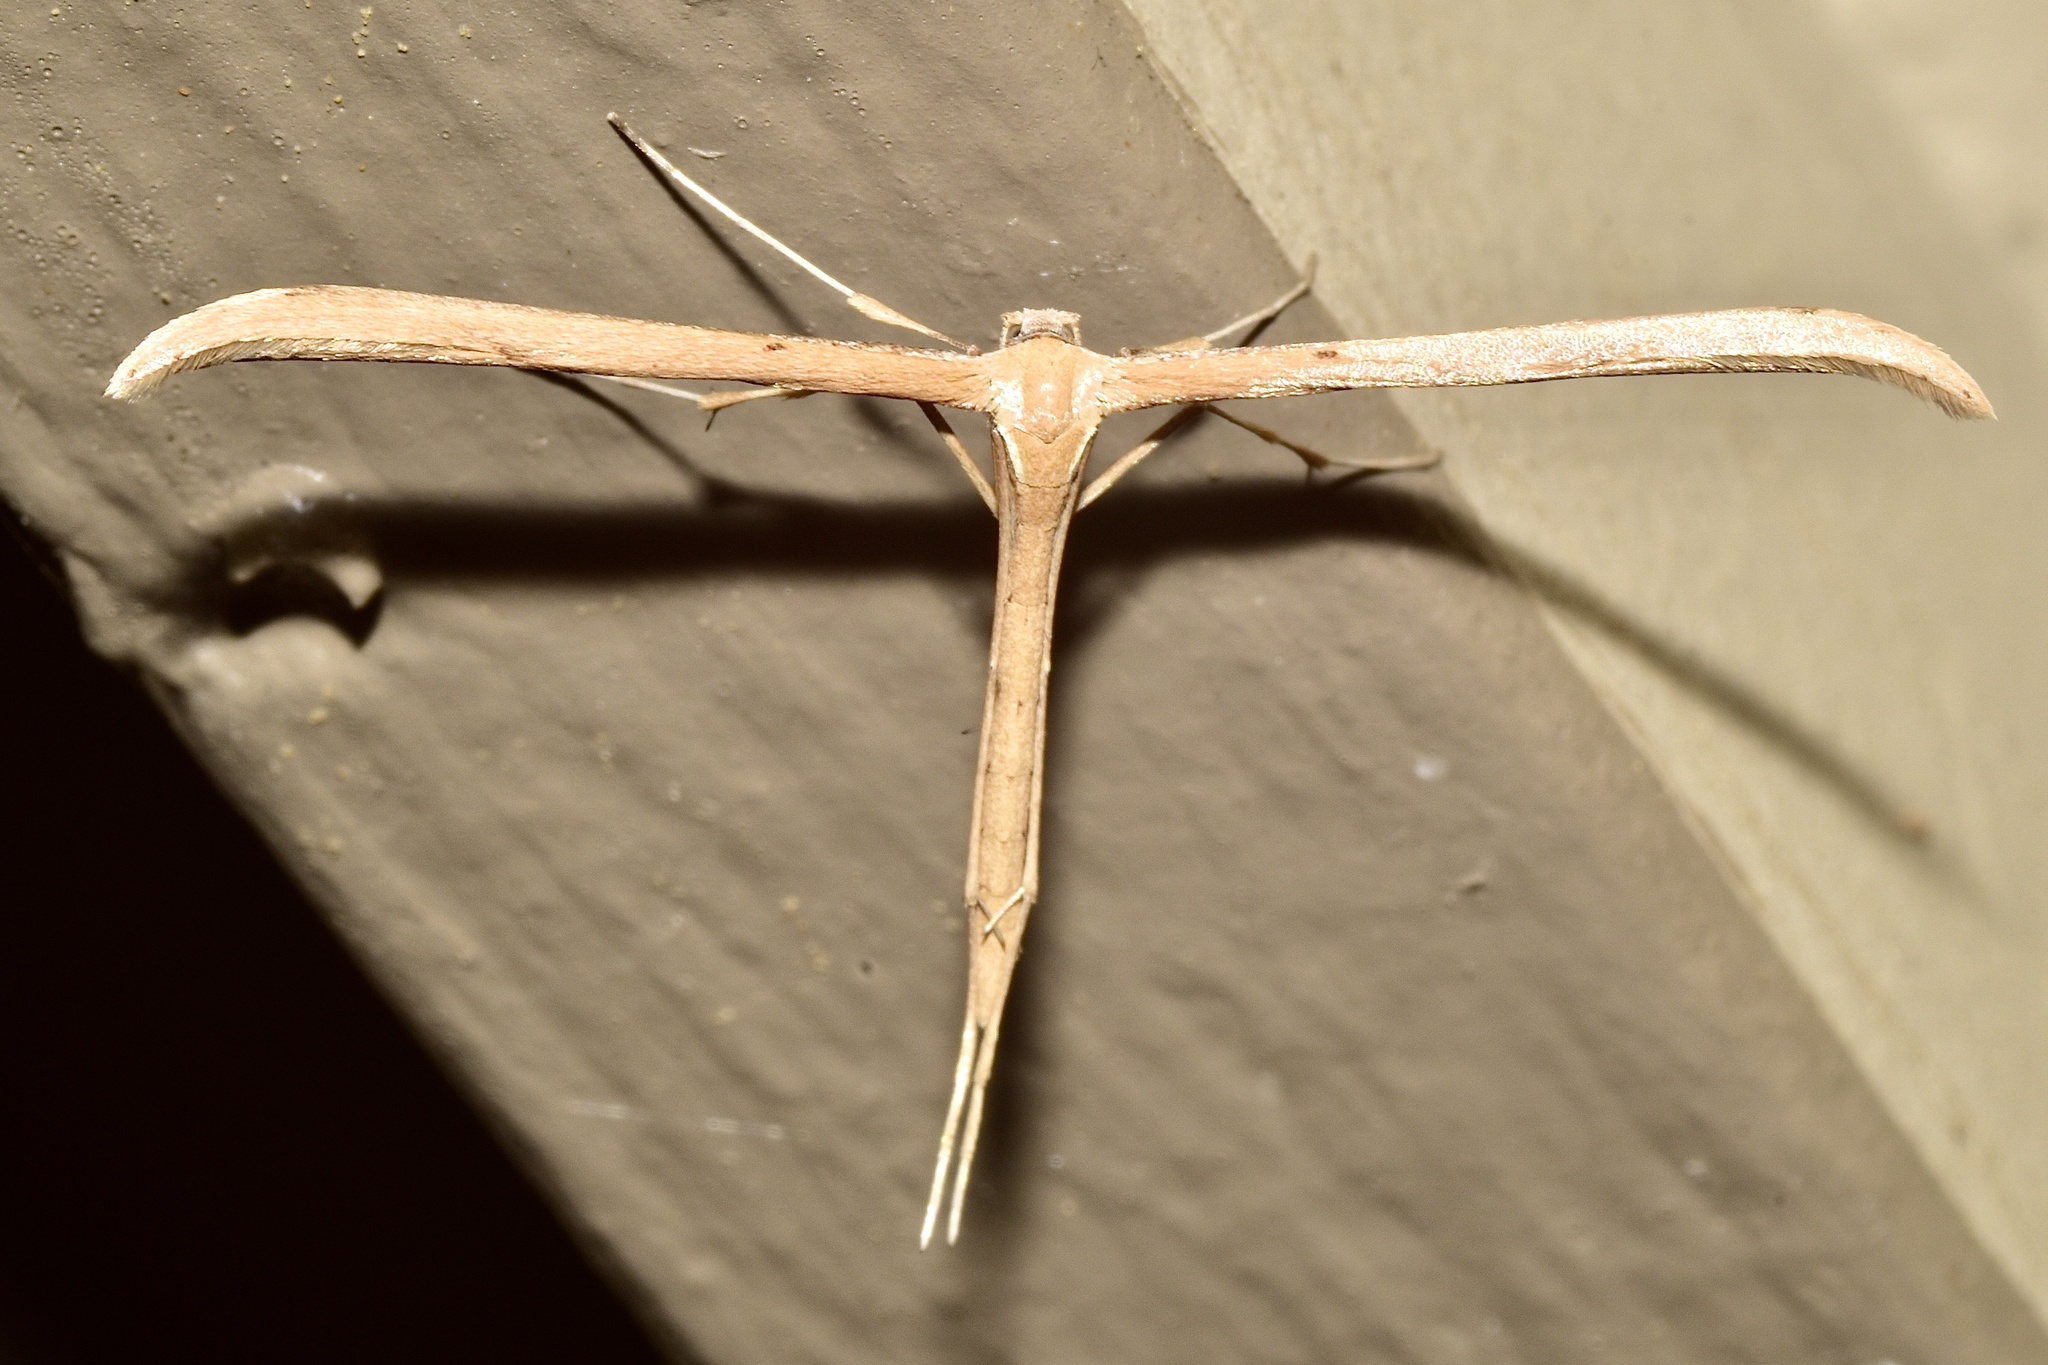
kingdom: Animalia
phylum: Arthropoda
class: Insecta
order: Lepidoptera
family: Pterophoridae
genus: Emmelina
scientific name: Emmelina monodactyla
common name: Common plume
